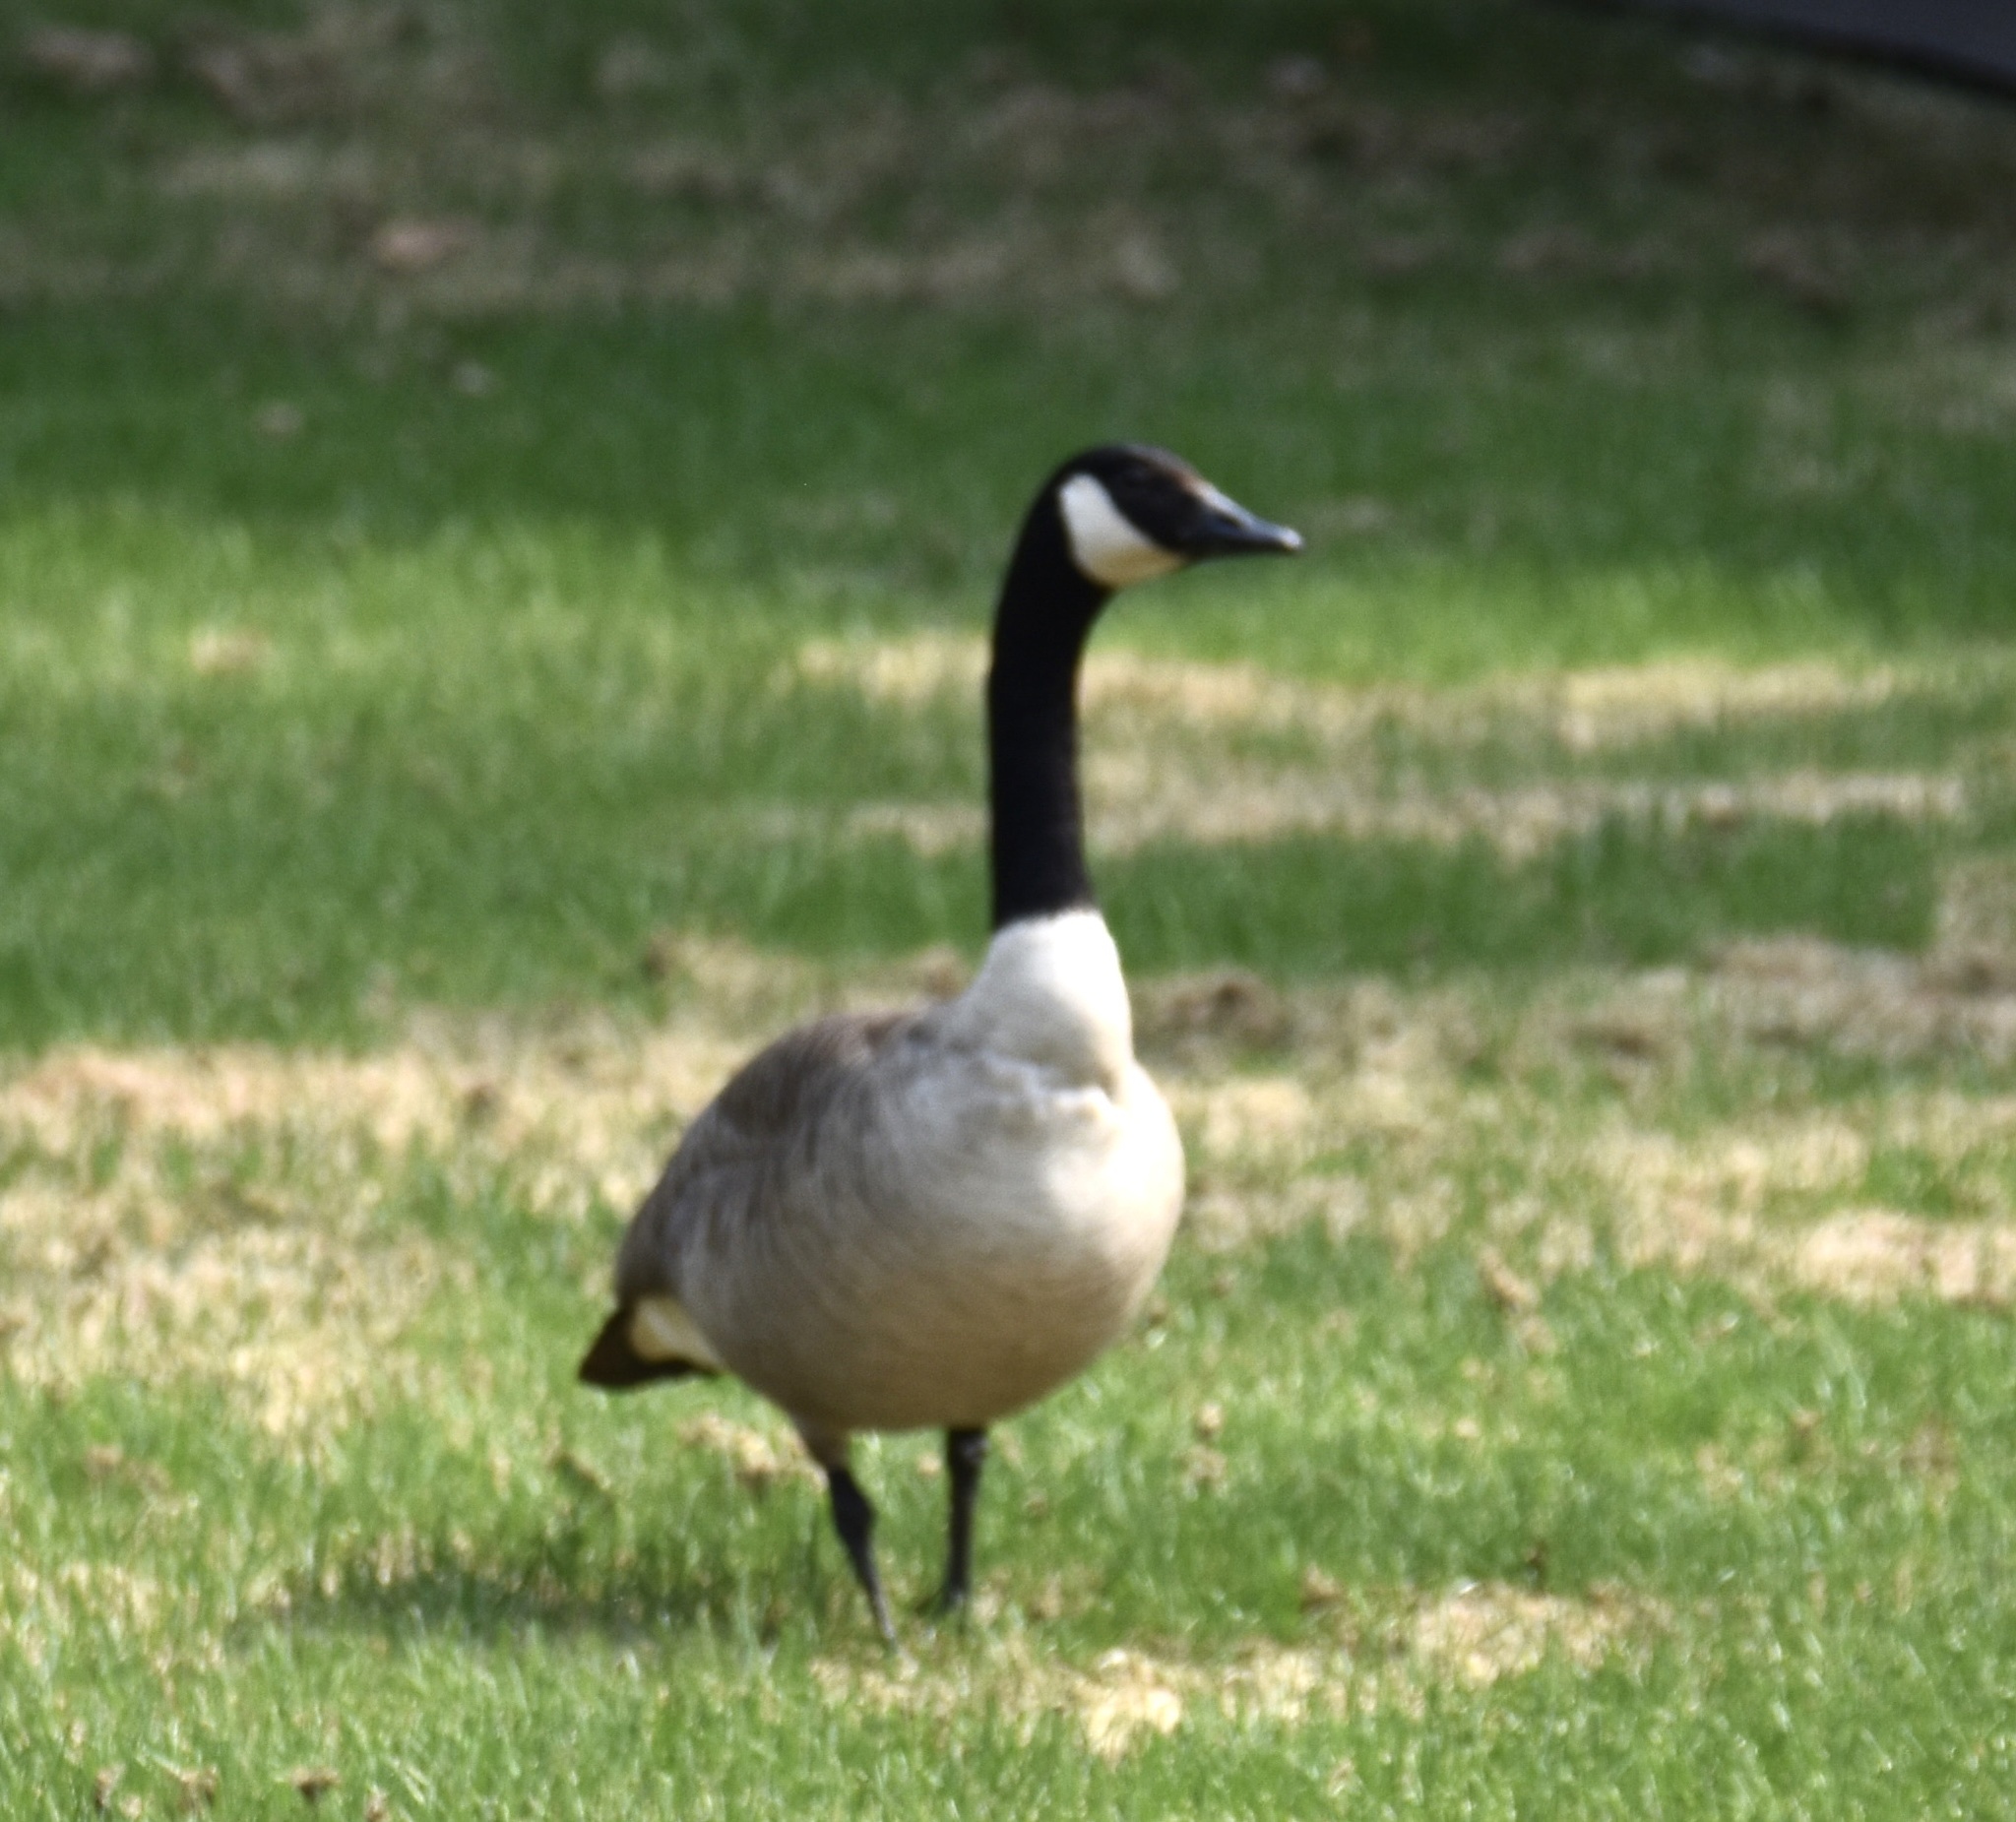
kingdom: Animalia
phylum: Chordata
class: Aves
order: Anseriformes
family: Anatidae
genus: Branta
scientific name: Branta canadensis
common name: Canada goose
